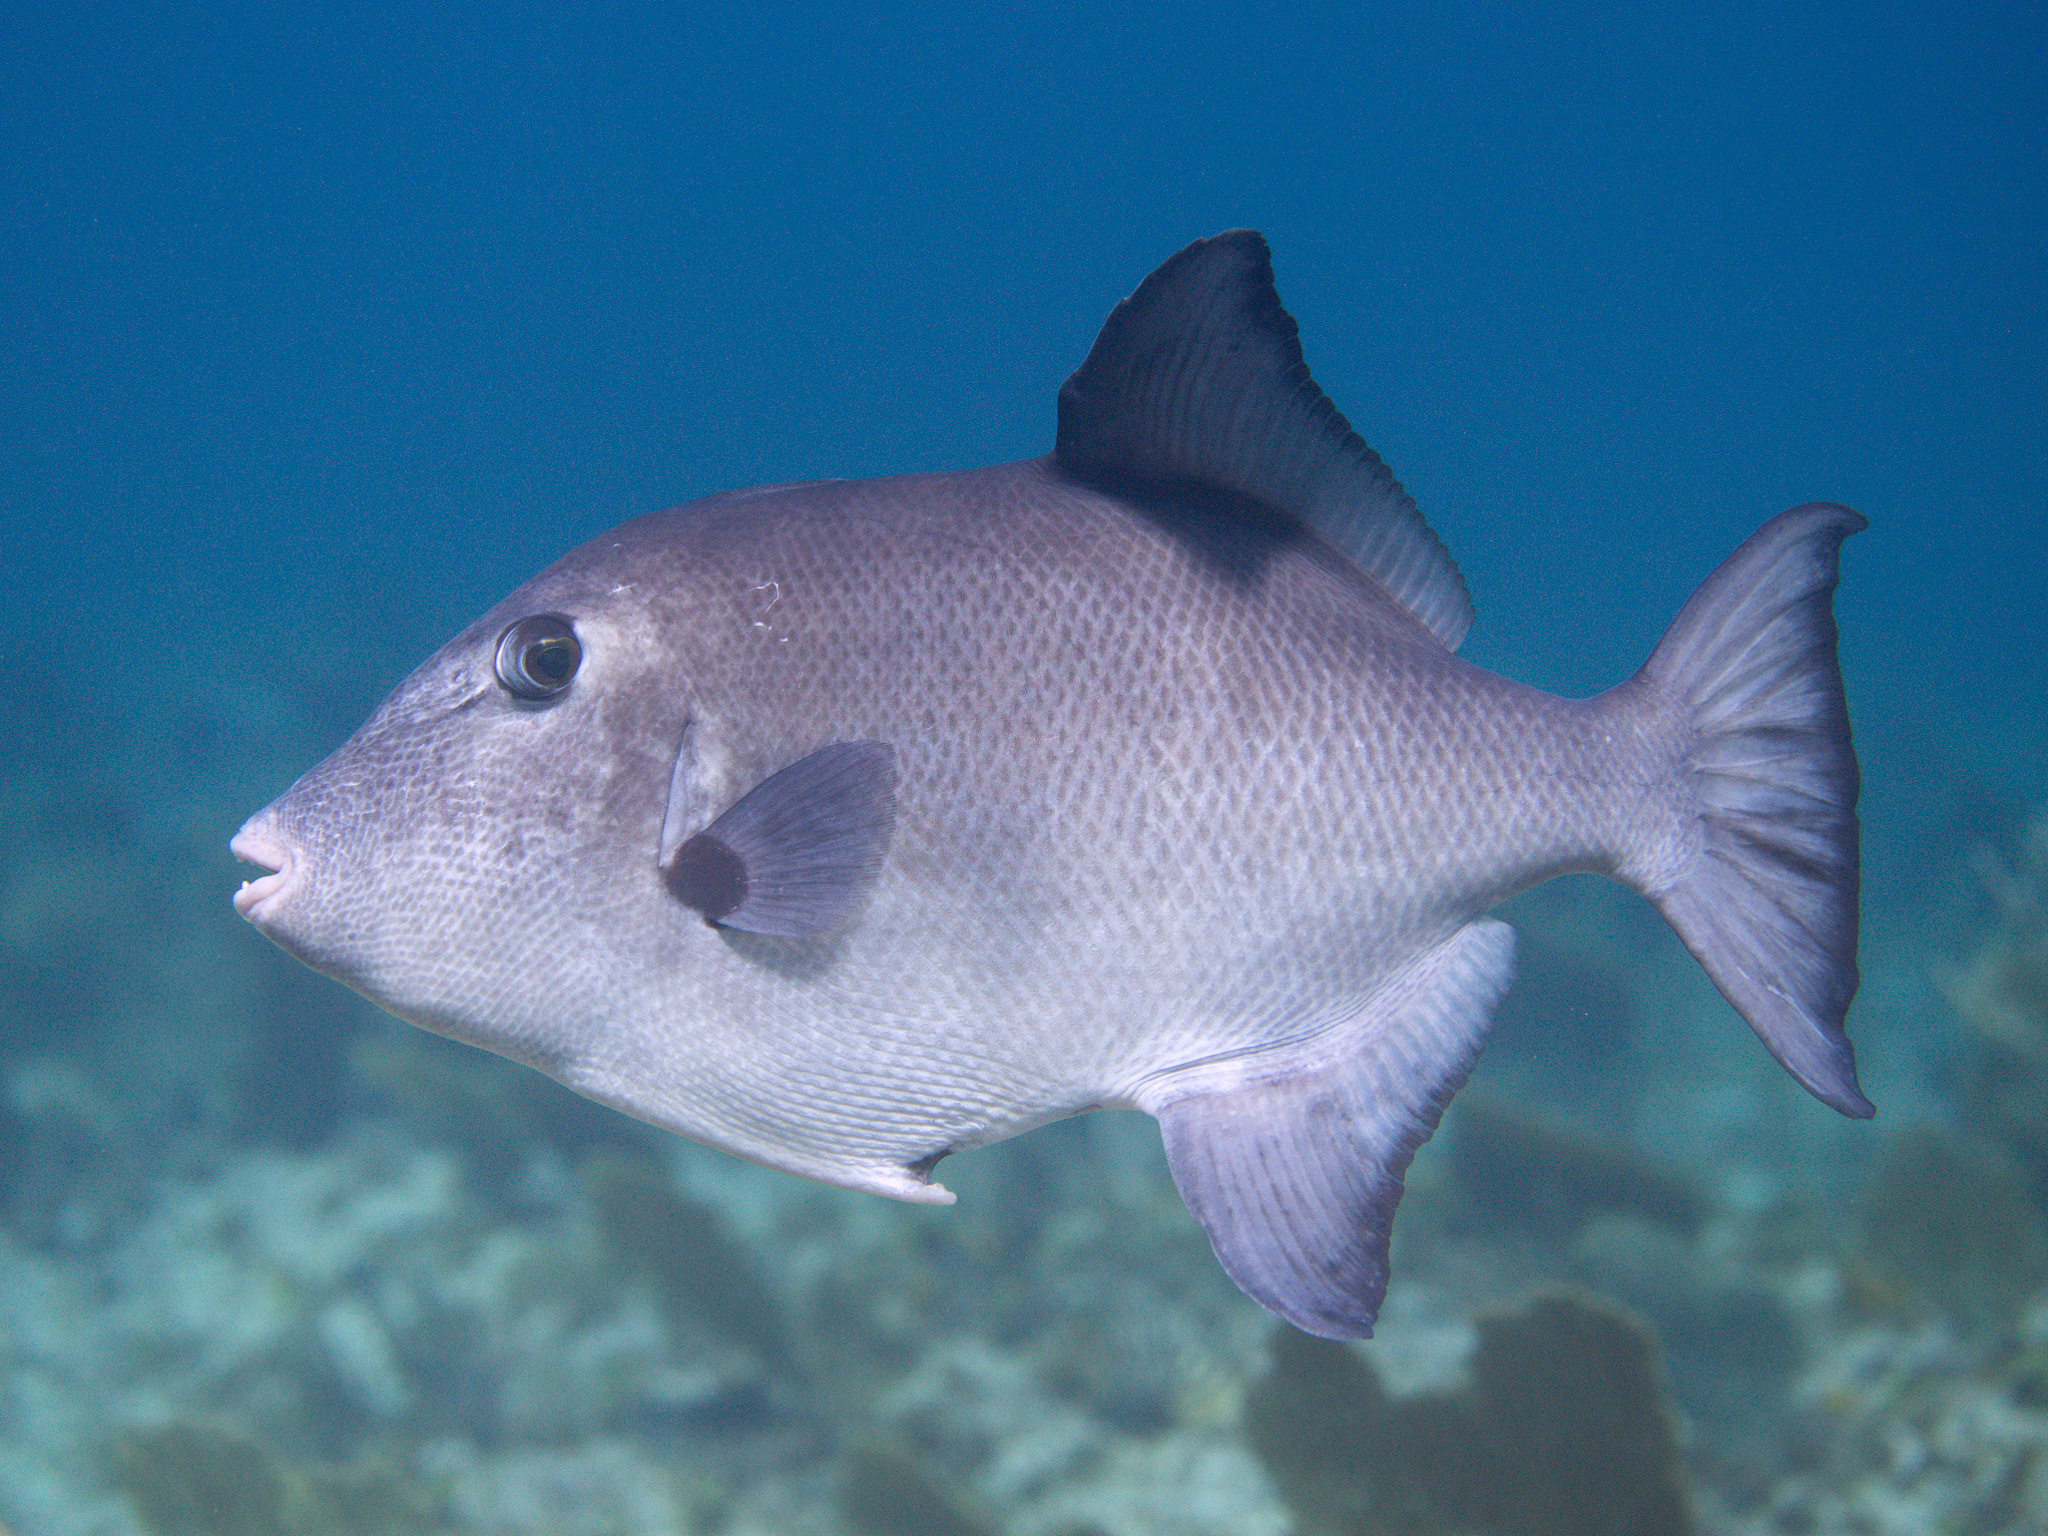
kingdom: Animalia
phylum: Chordata
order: Tetraodontiformes
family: Balistidae
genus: Canthidermis
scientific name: Canthidermis sufflamen
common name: Ocean triggerfish
